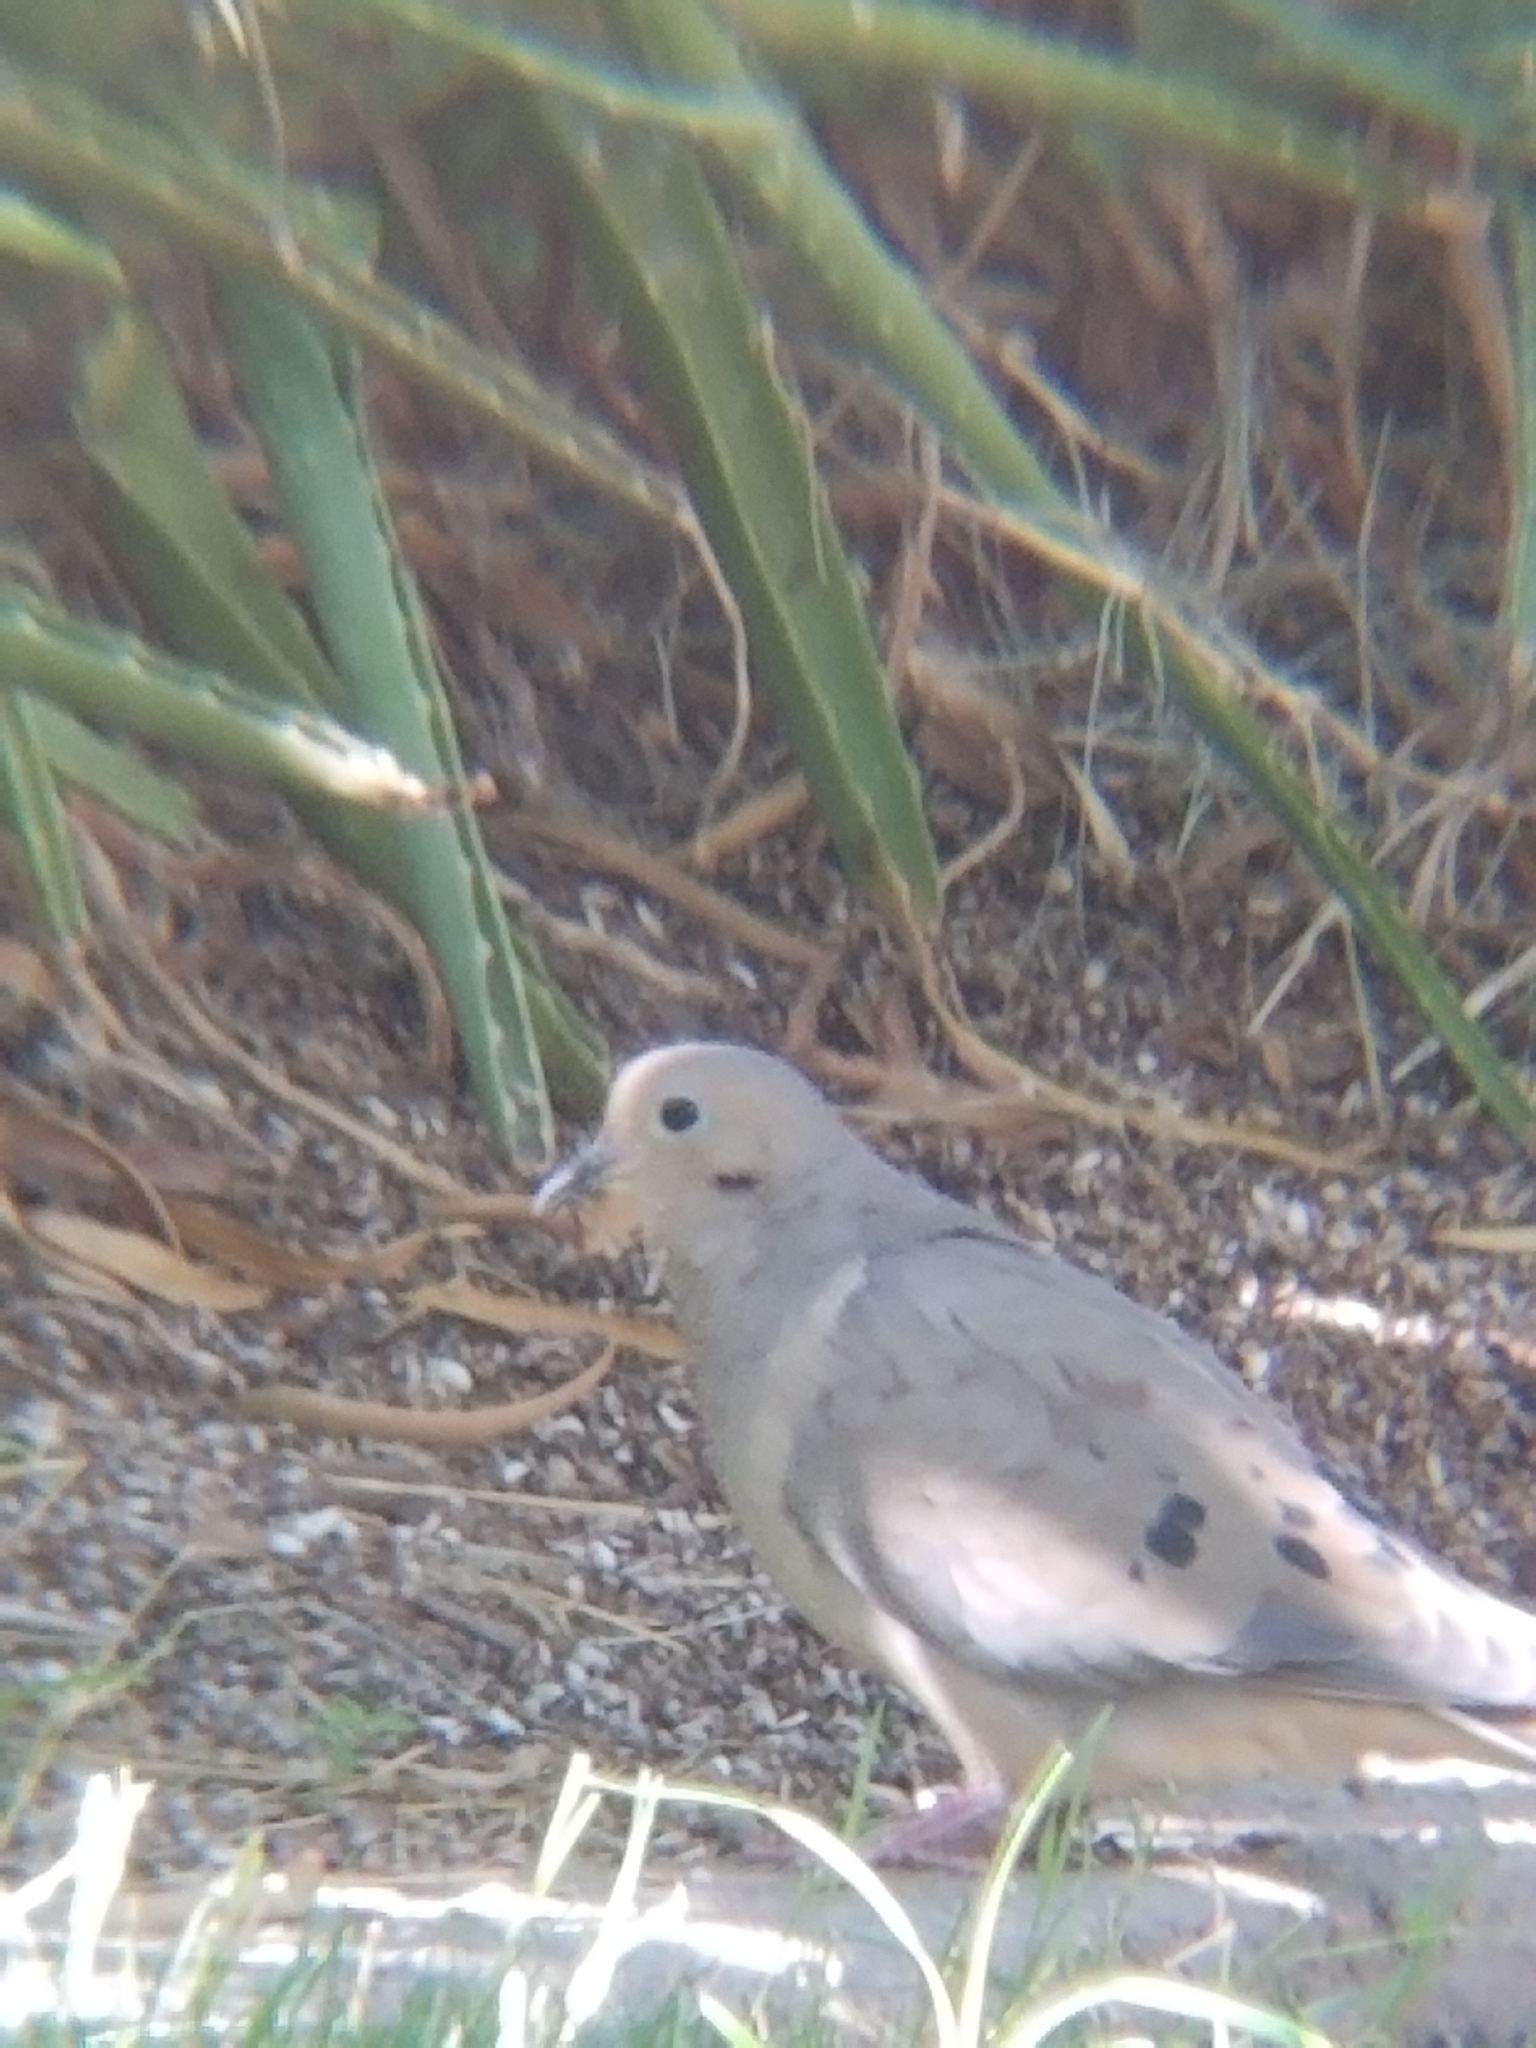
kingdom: Animalia
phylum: Chordata
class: Aves
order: Columbiformes
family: Columbidae
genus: Zenaida
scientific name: Zenaida macroura
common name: Mourning dove
